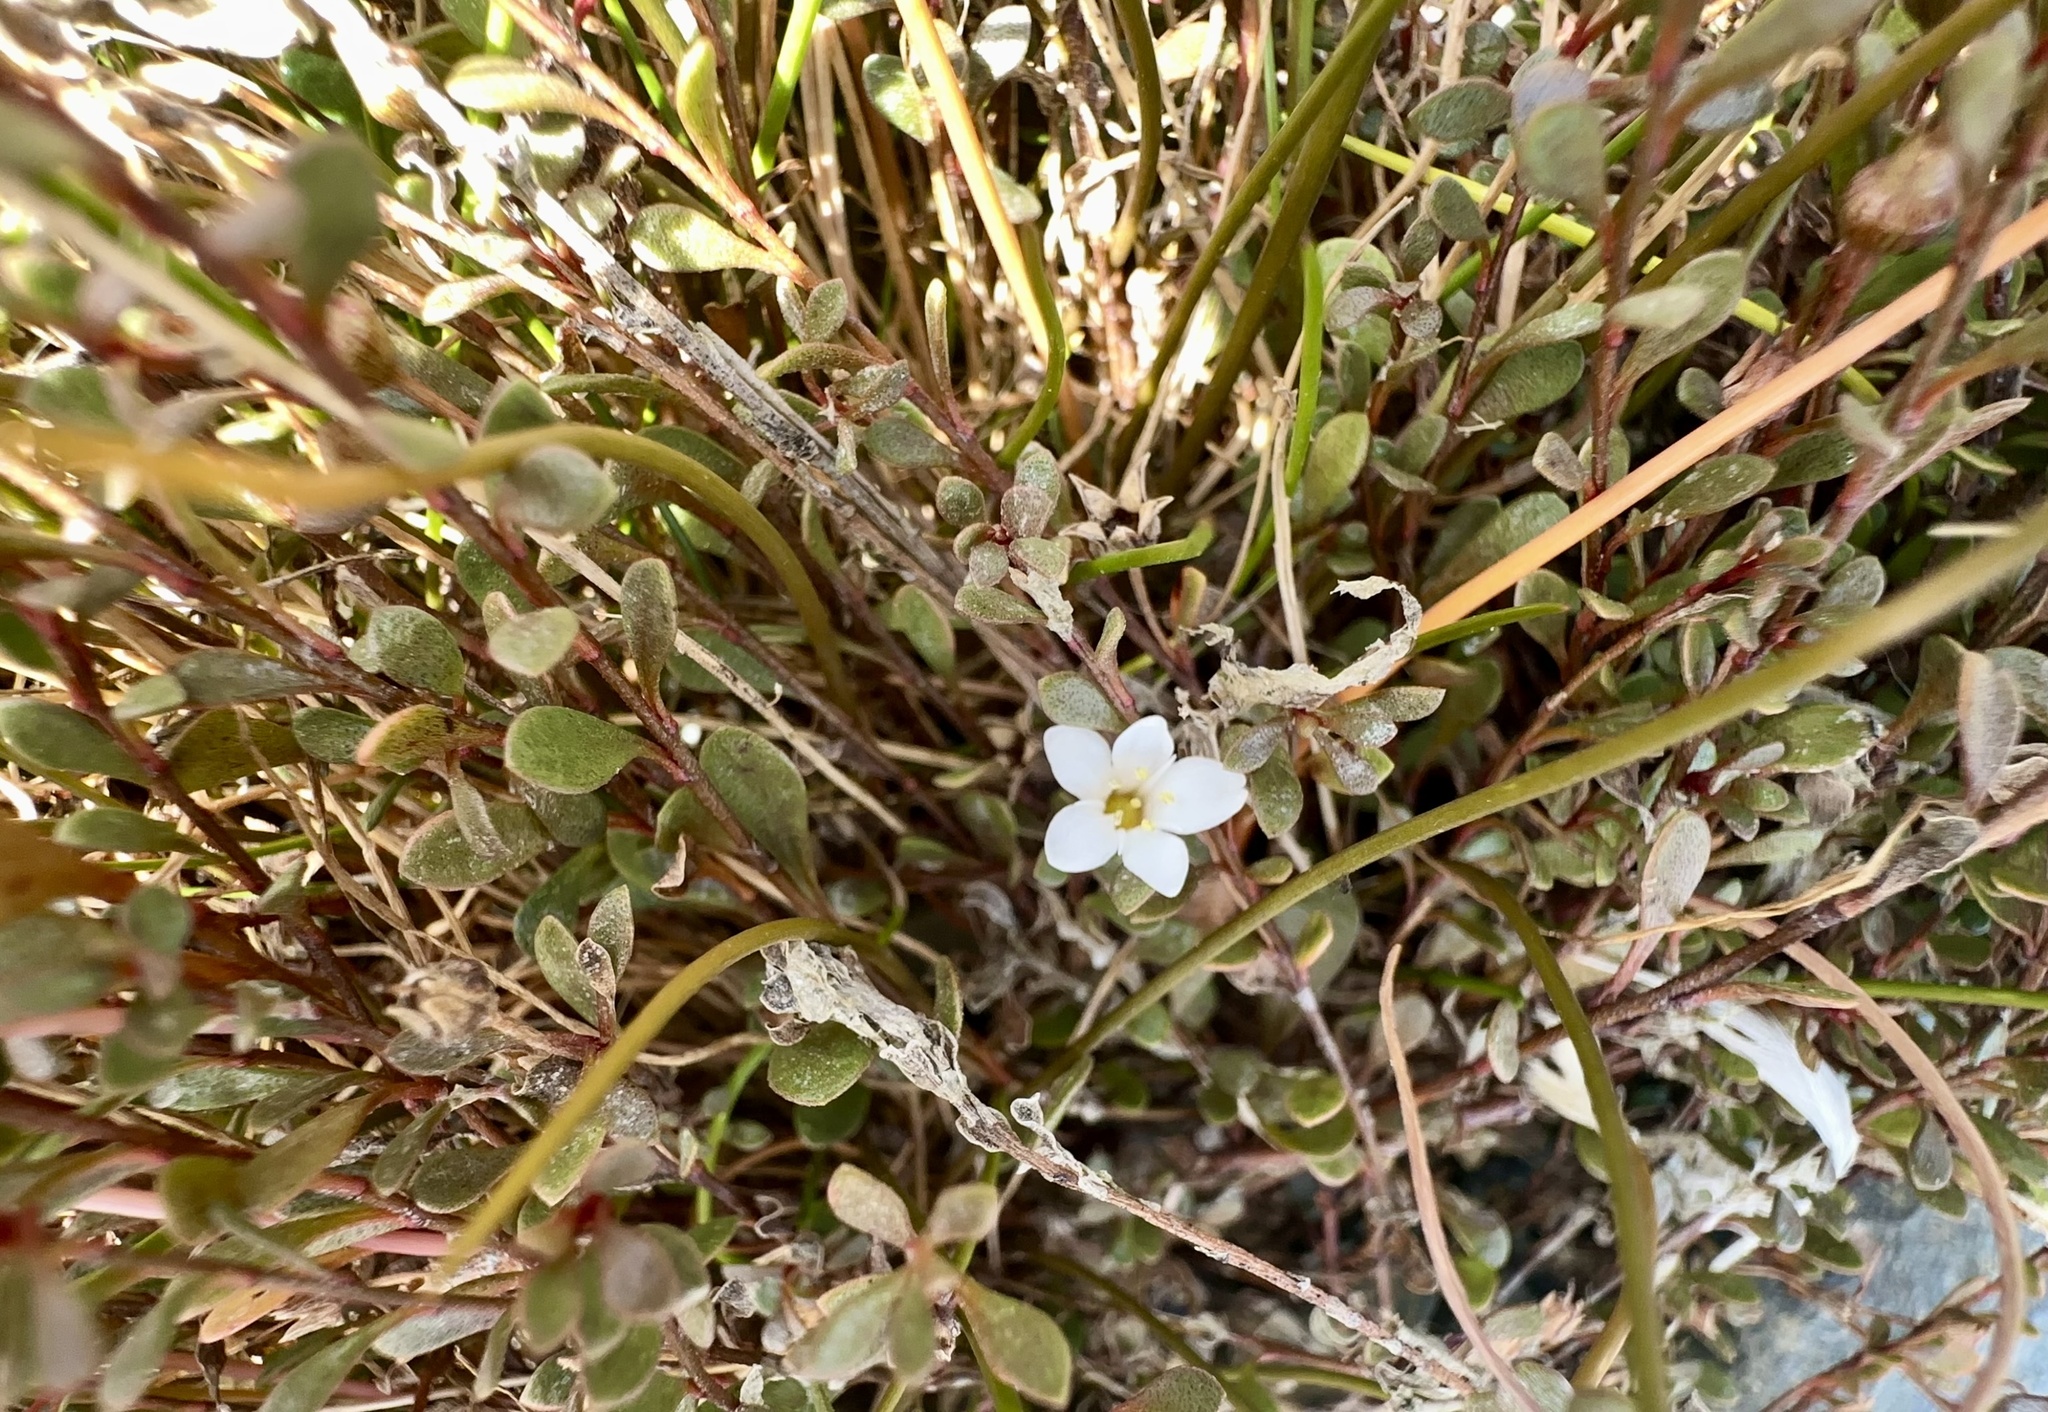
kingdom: Plantae
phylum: Tracheophyta
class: Magnoliopsida
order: Ericales
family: Primulaceae
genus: Samolus
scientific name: Samolus repens
